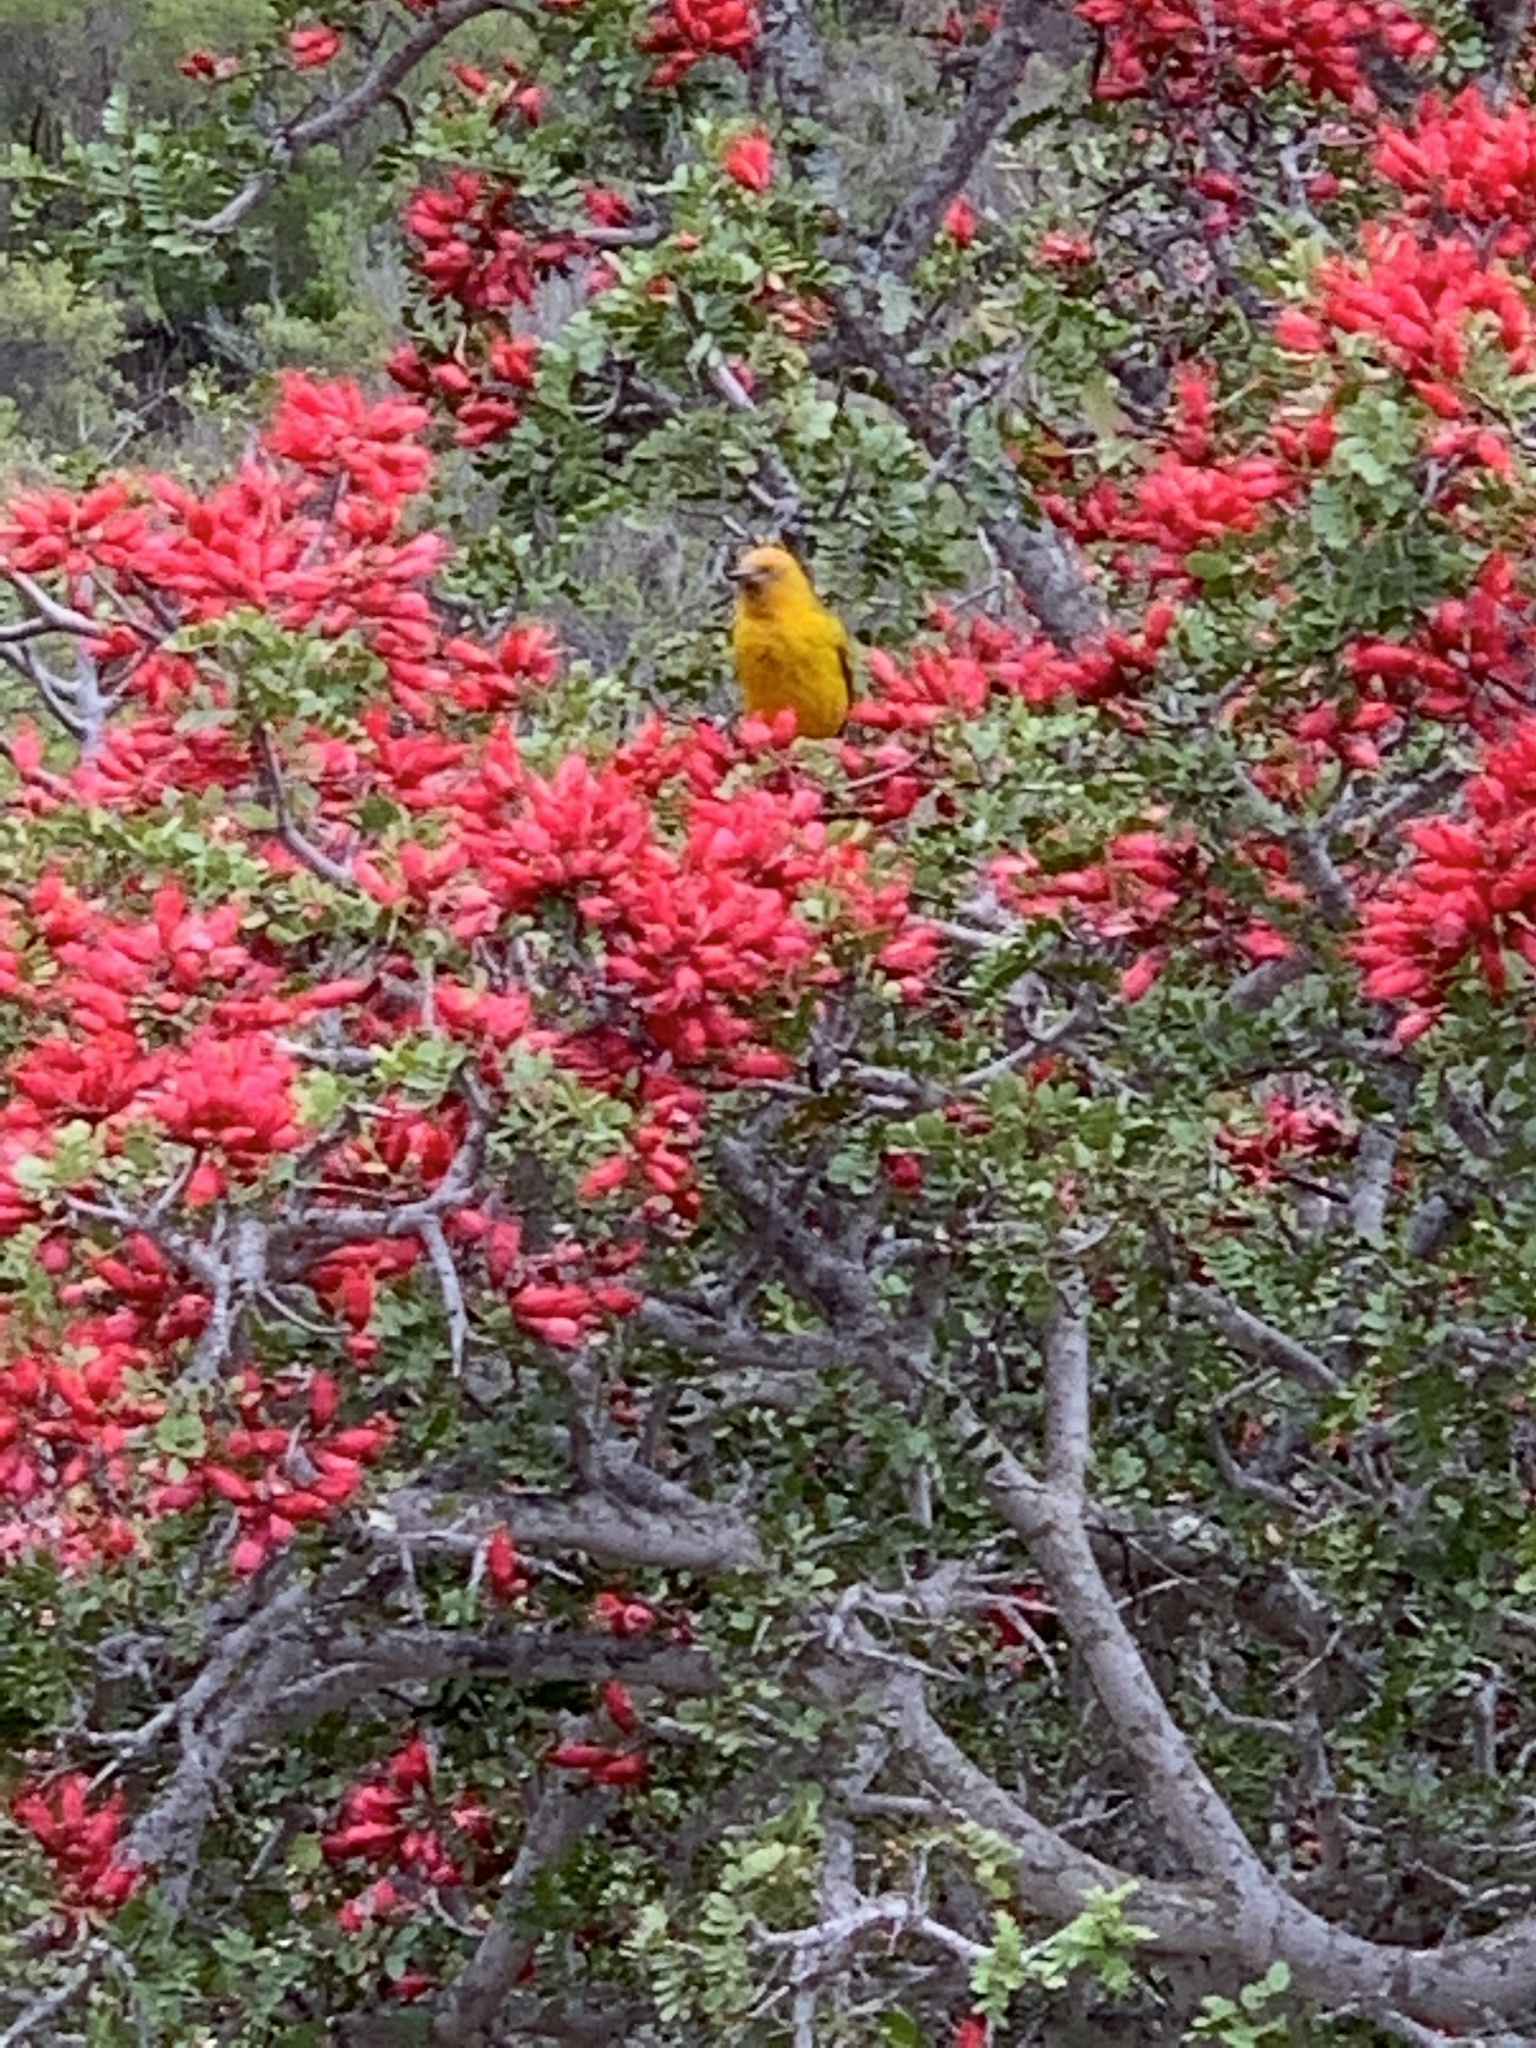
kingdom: Animalia
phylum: Chordata
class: Aves
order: Passeriformes
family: Ploceidae
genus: Ploceus
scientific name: Ploceus capensis
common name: Cape weaver
